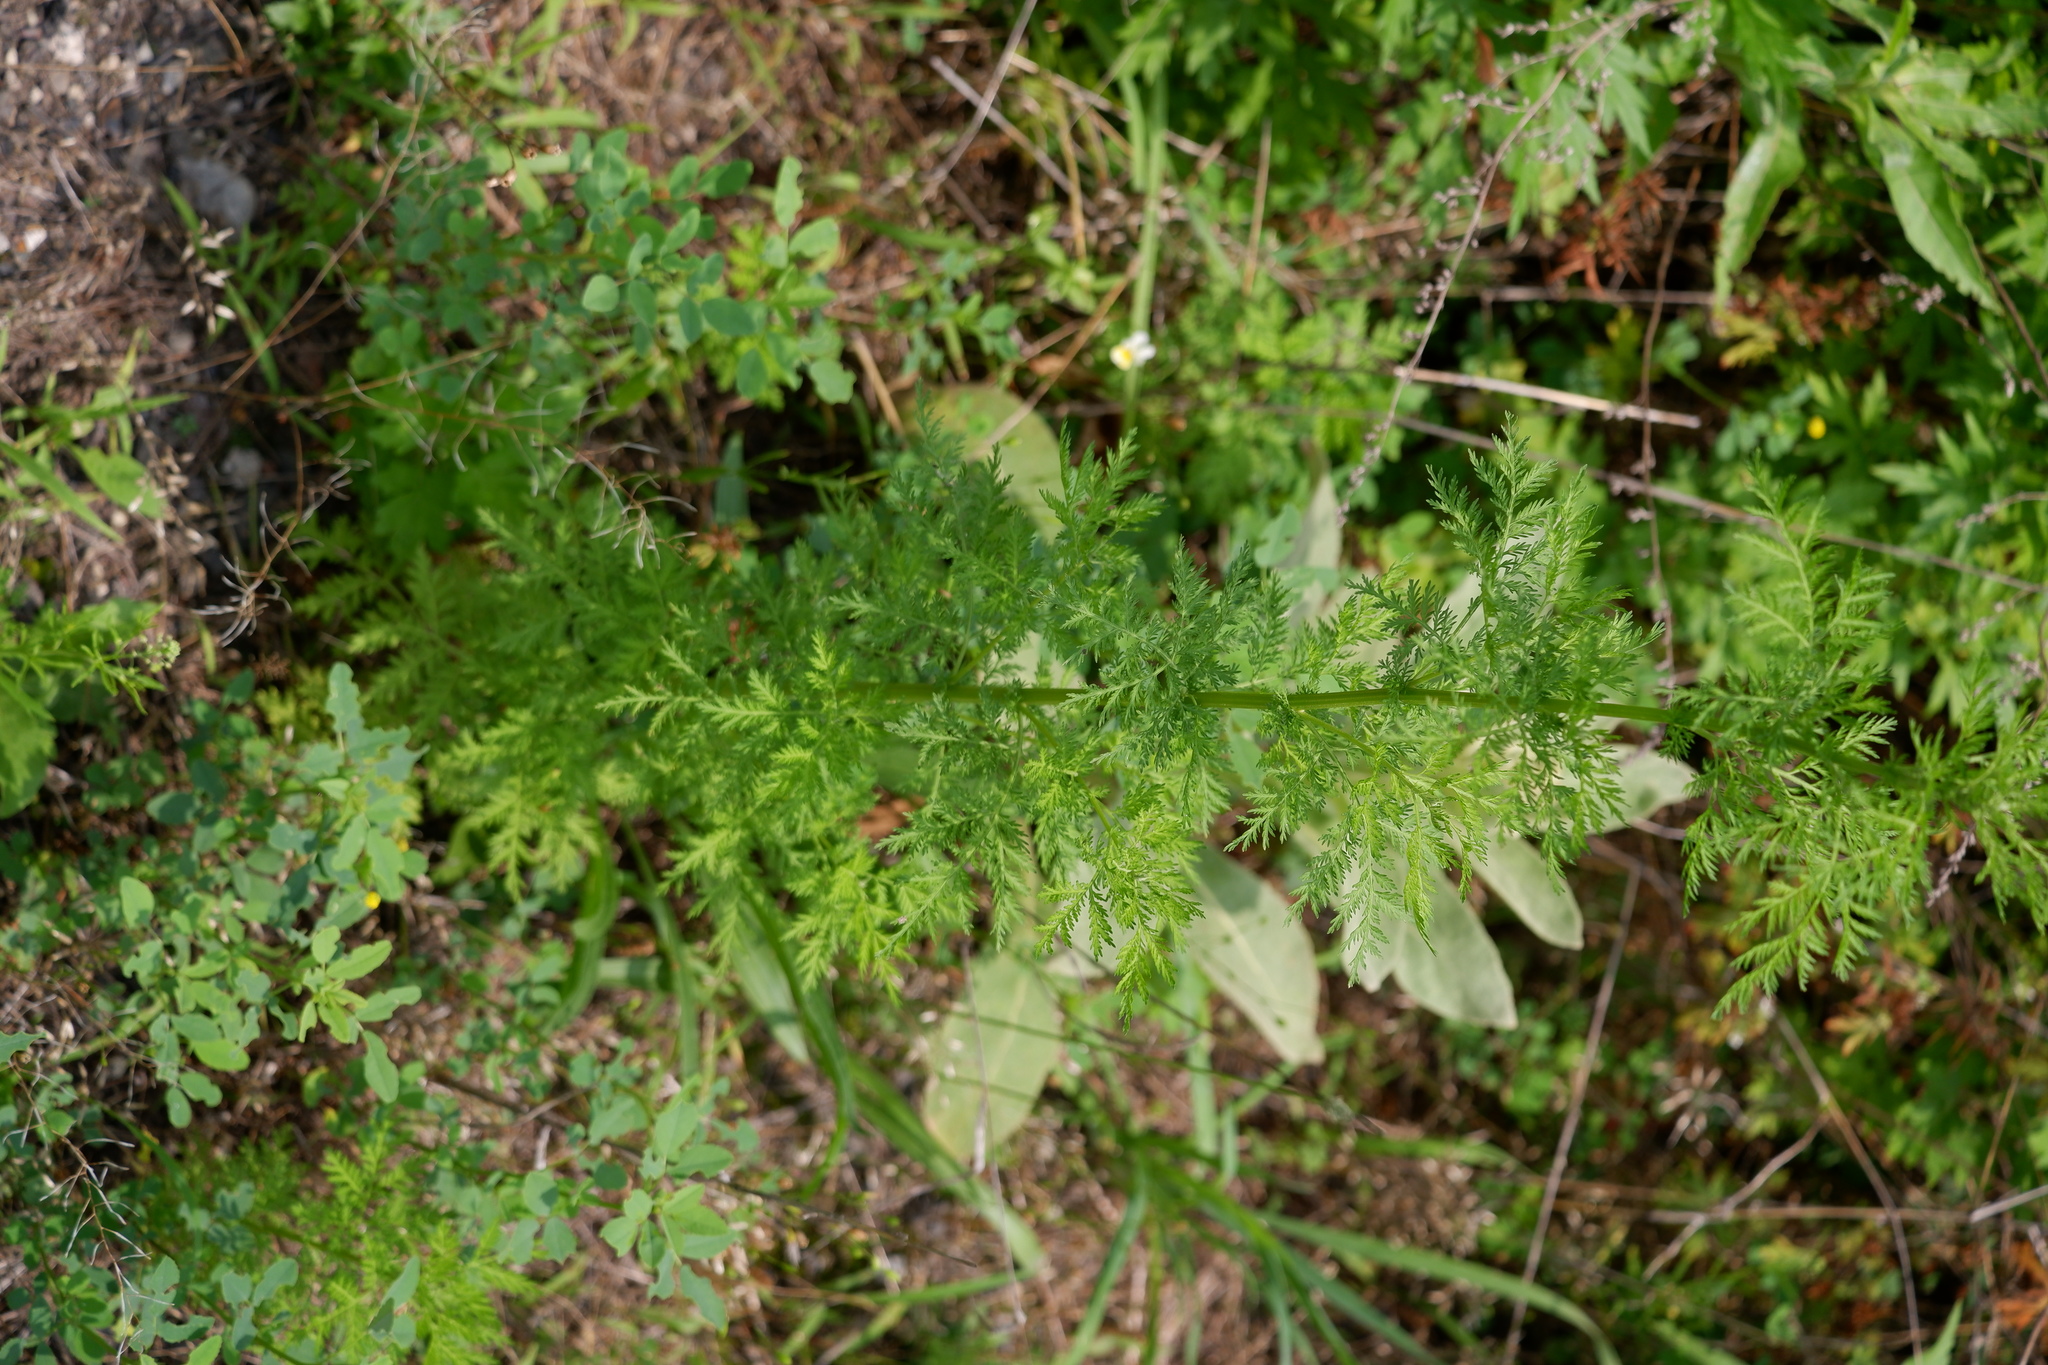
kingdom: Plantae
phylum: Tracheophyta
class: Magnoliopsida
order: Asterales
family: Asteraceae
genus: Artemisia
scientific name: Artemisia annua
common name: Sweet sagewort
